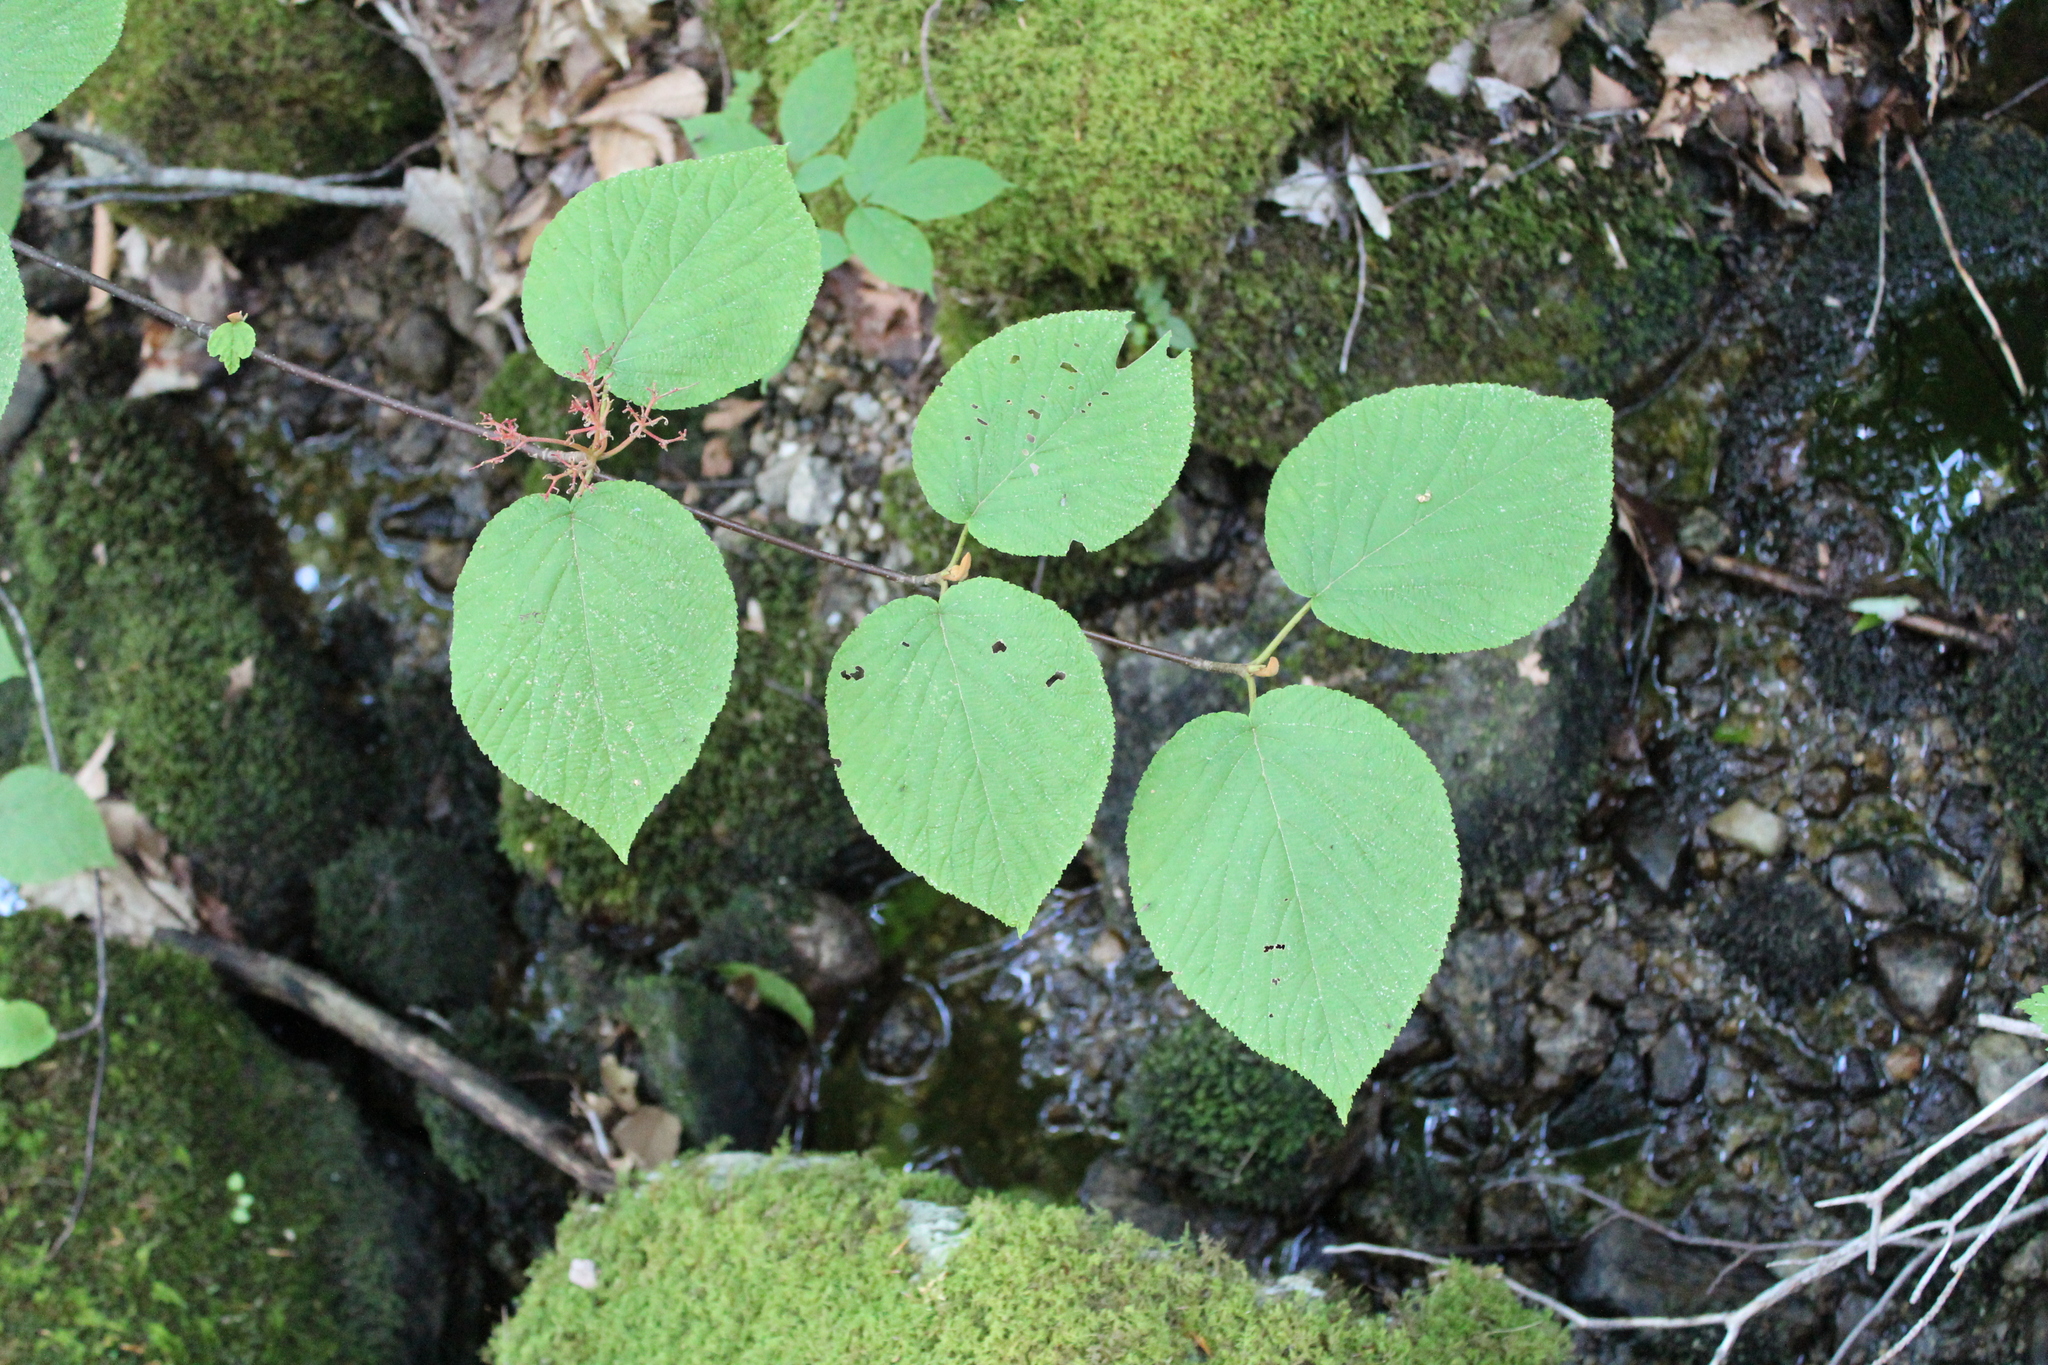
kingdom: Plantae
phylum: Tracheophyta
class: Magnoliopsida
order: Dipsacales
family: Viburnaceae
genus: Viburnum
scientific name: Viburnum lantanoides
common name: Hobblebush
